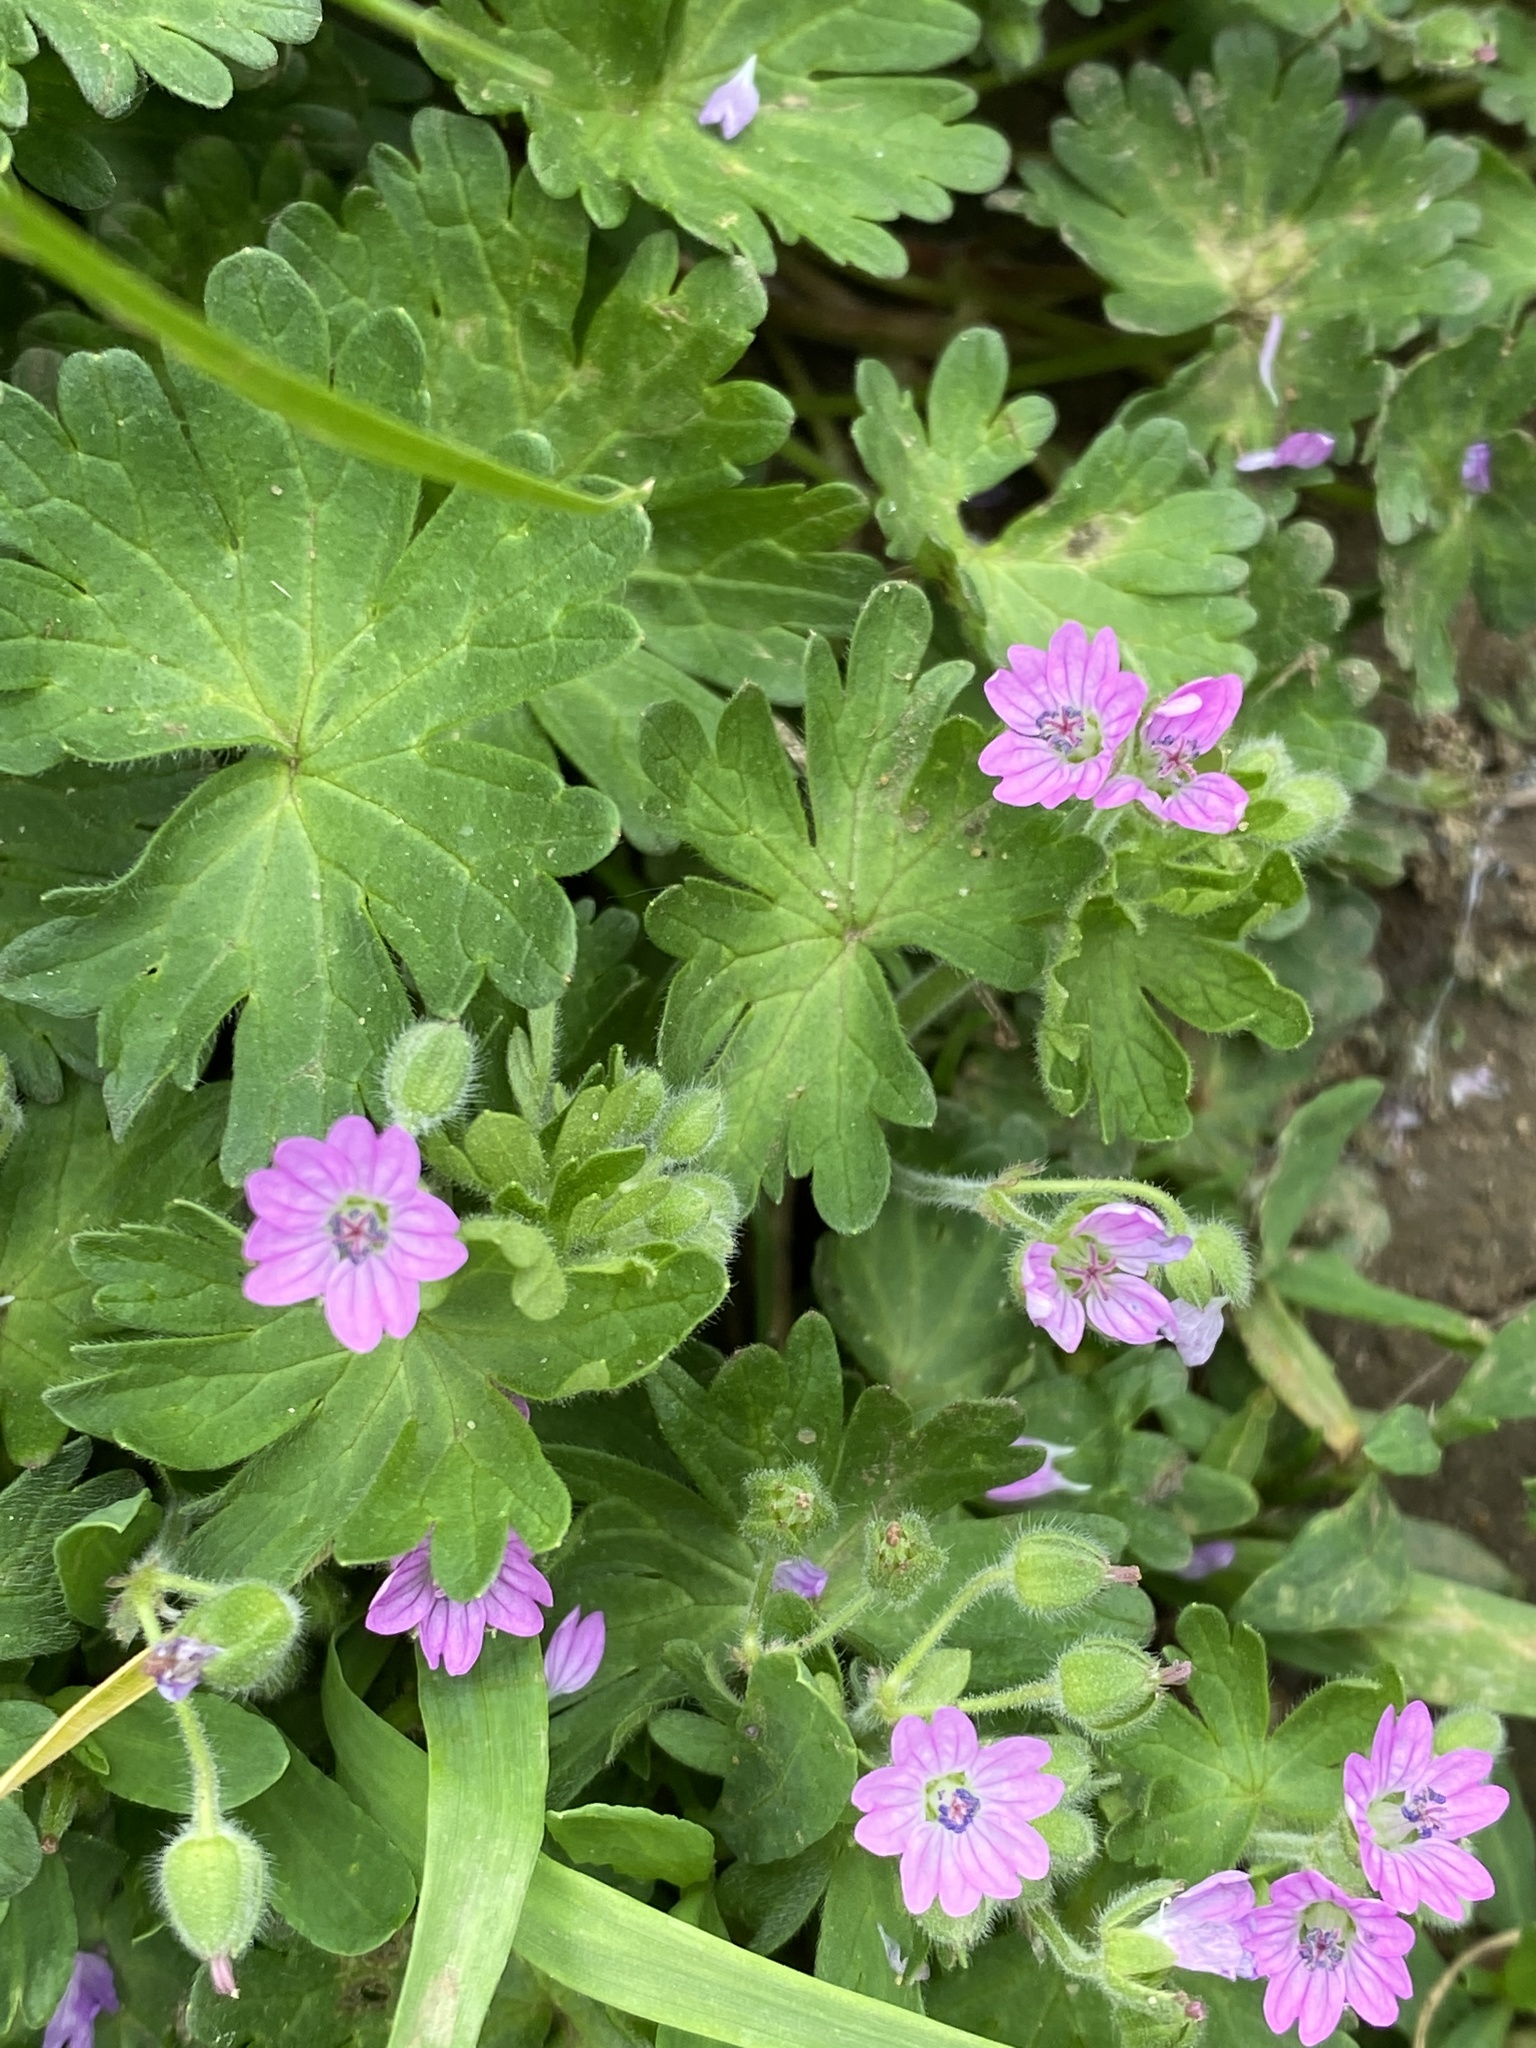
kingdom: Plantae
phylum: Tracheophyta
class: Magnoliopsida
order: Geraniales
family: Geraniaceae
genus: Geranium
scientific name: Geranium molle
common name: Dove's-foot crane's-bill
